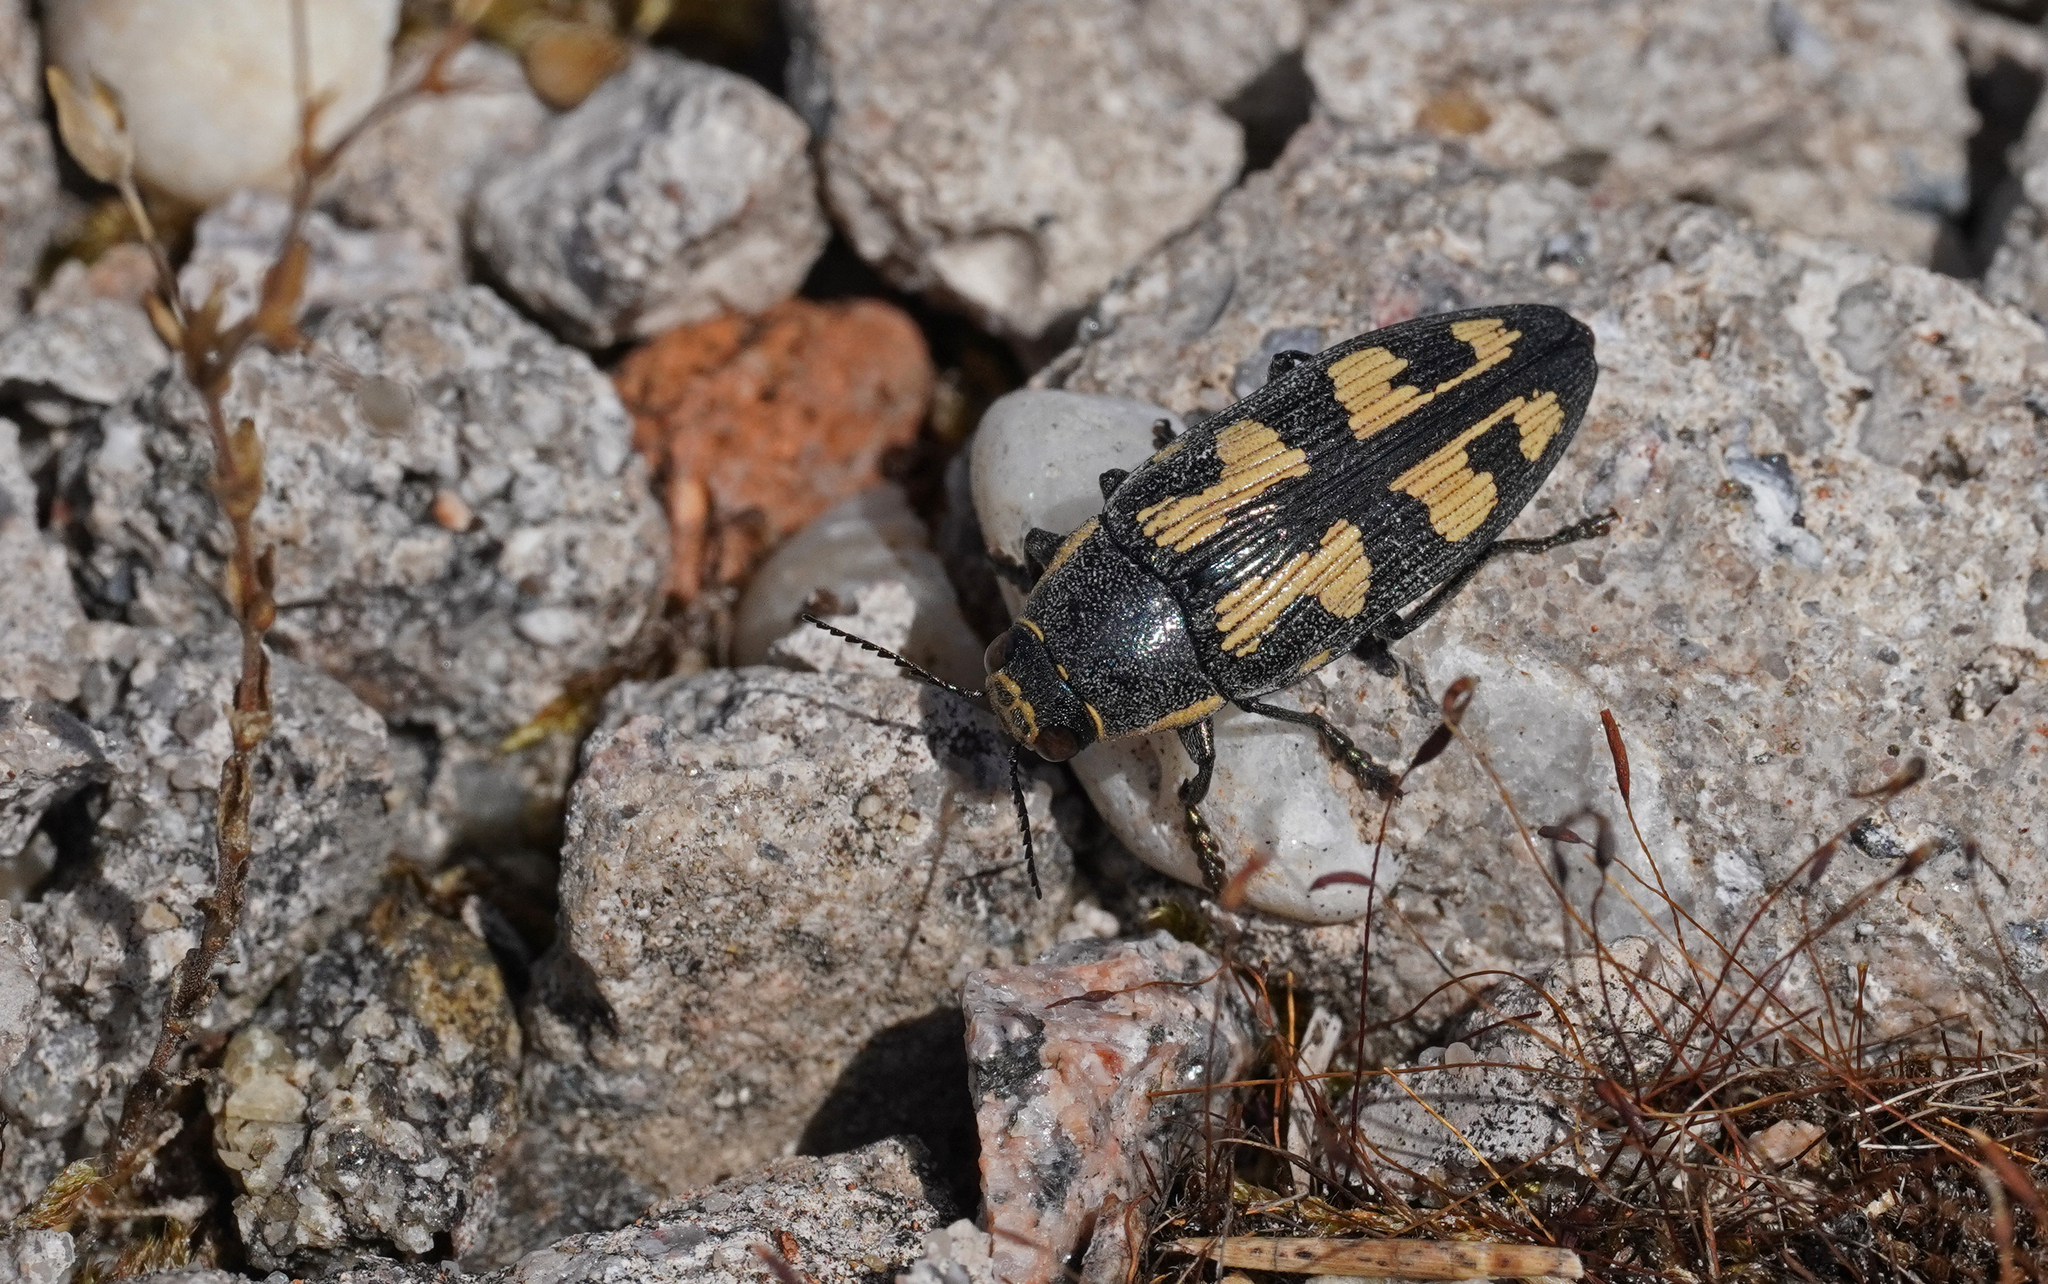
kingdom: Animalia
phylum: Arthropoda
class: Insecta
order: Coleoptera
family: Buprestidae
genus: Buprestis
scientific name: Buprestis novemmaculata
